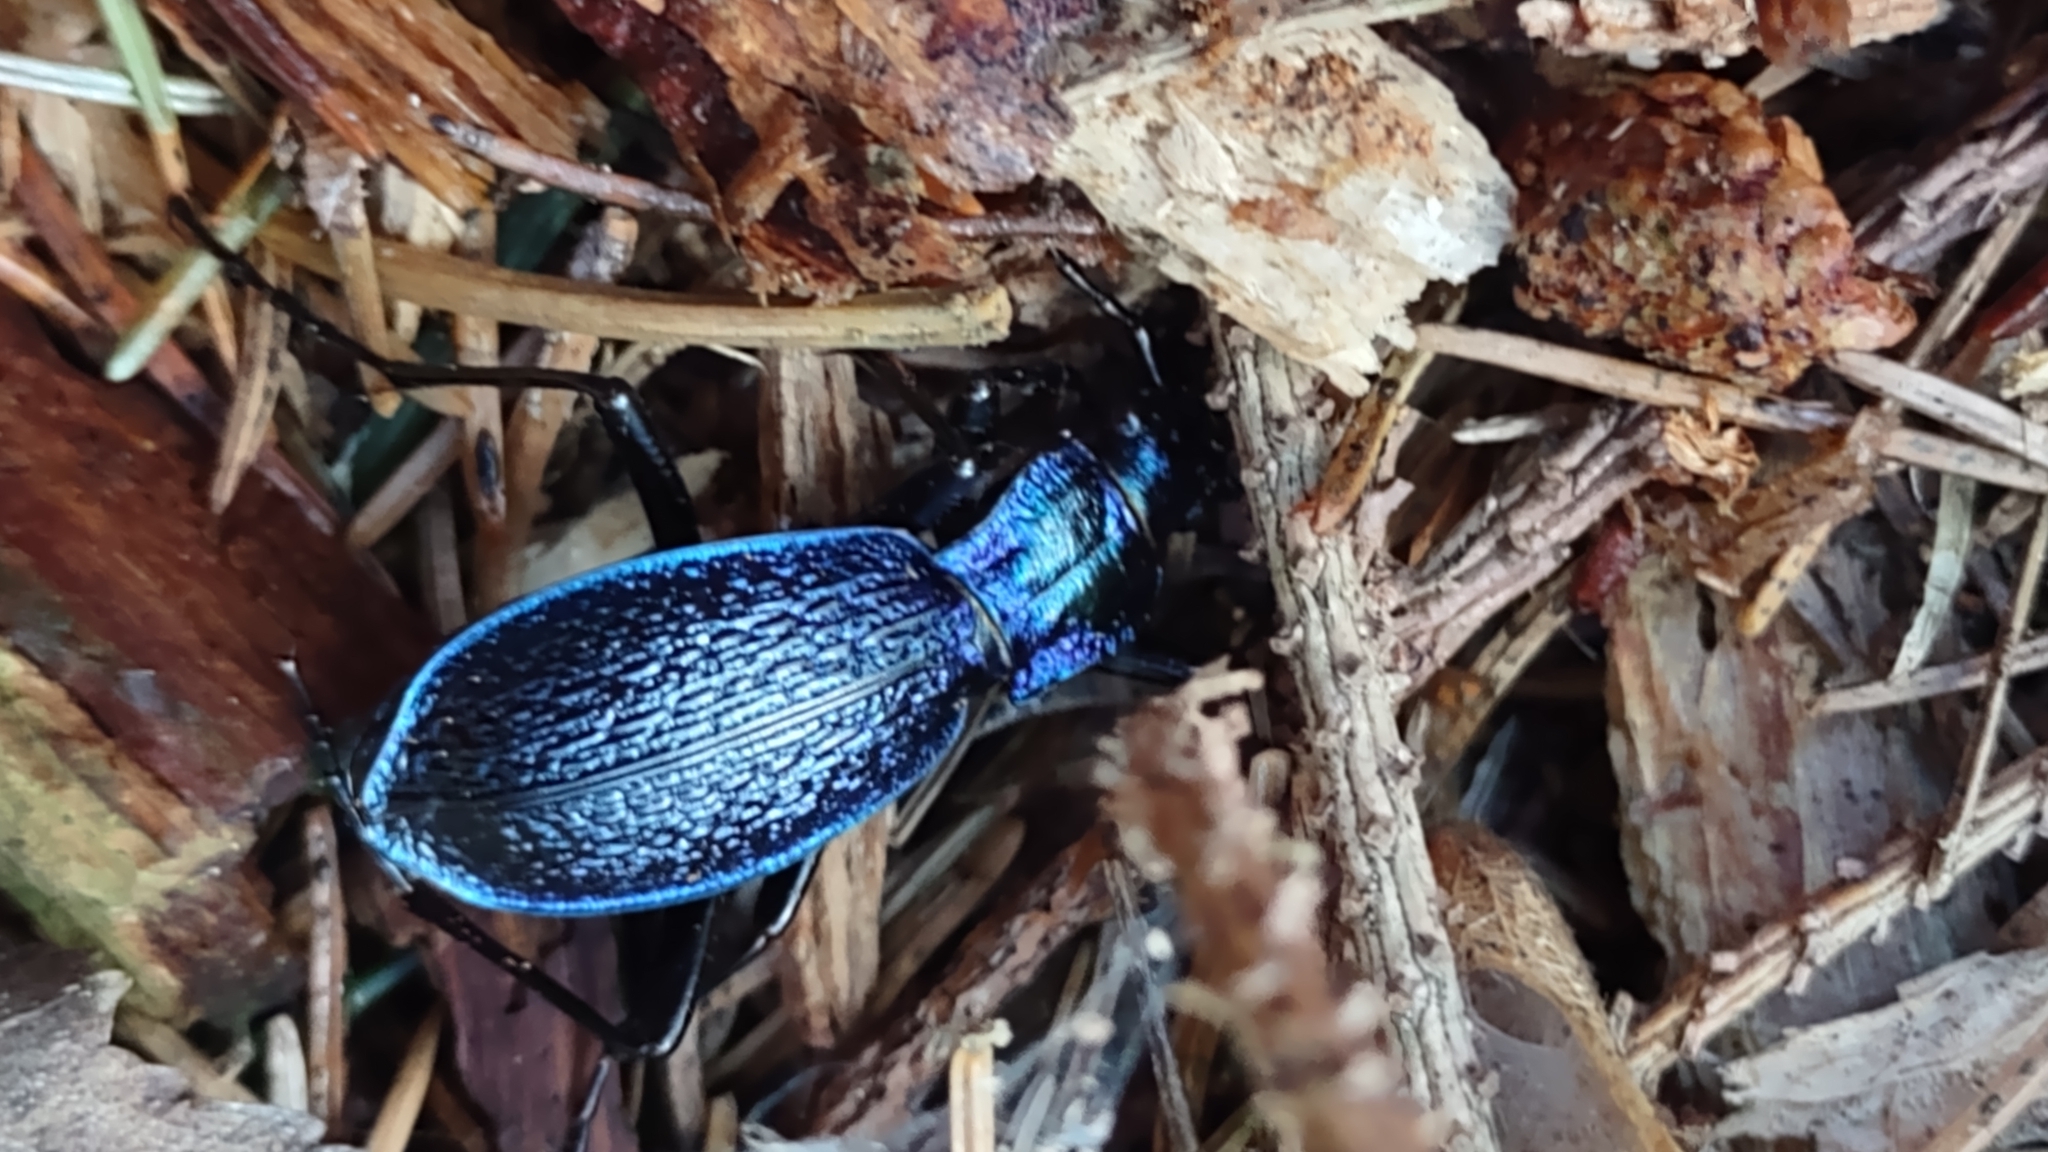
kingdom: Animalia
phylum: Arthropoda
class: Insecta
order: Coleoptera
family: Carabidae
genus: Carabus
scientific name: Carabus intricatus
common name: Blue ground beetle
